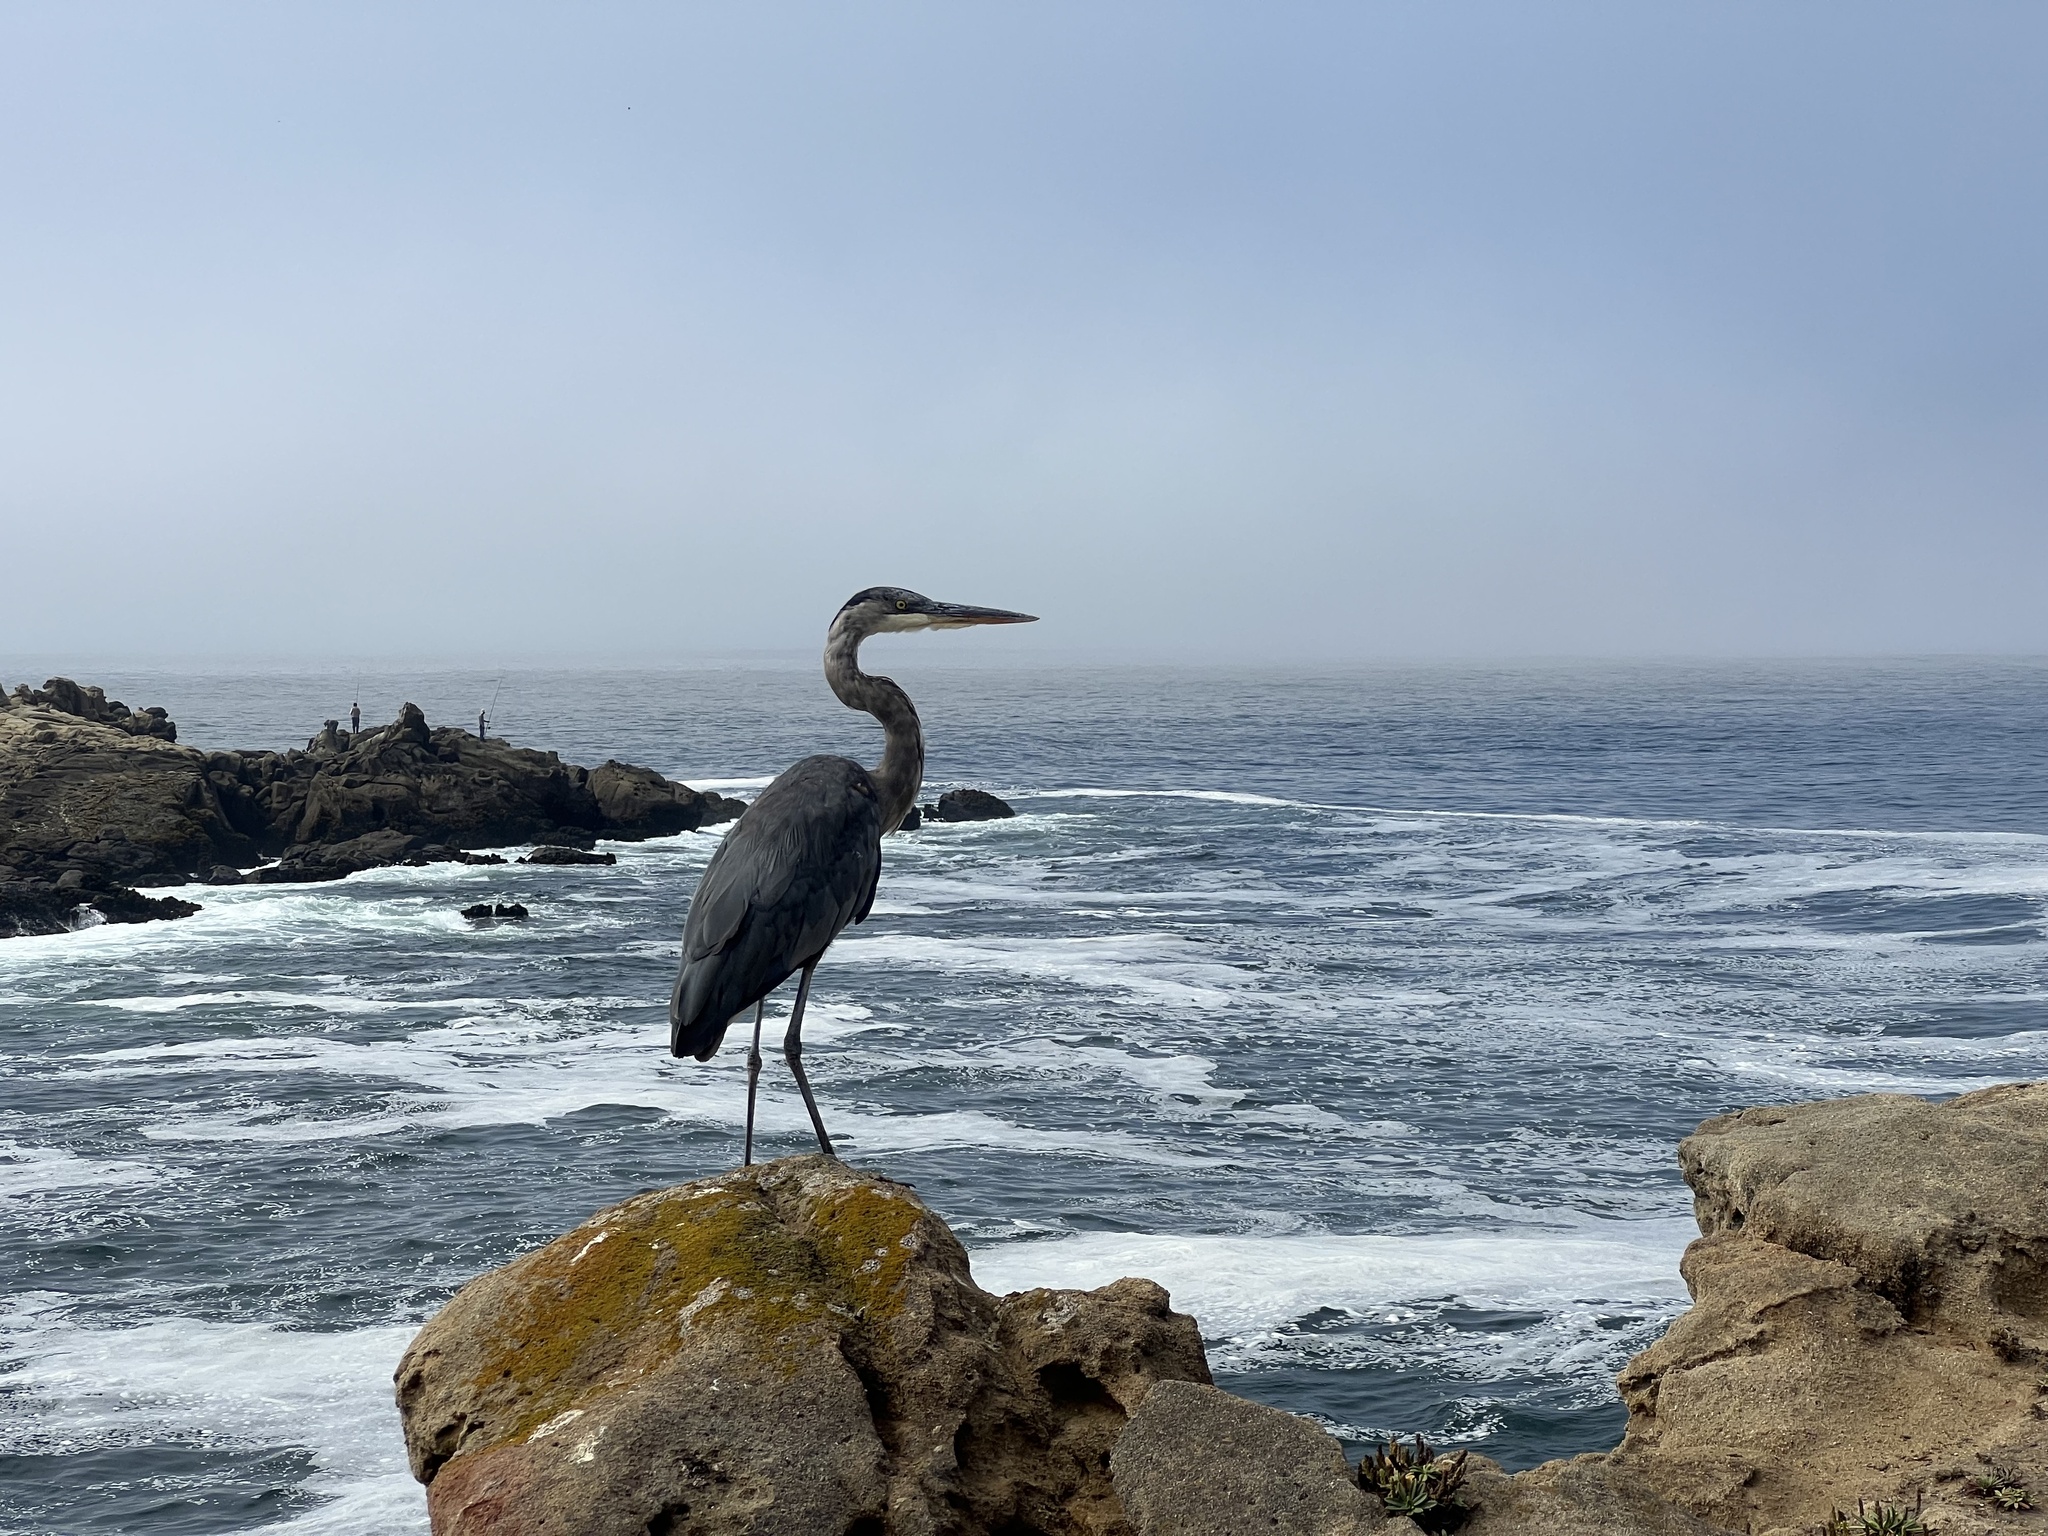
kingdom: Animalia
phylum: Chordata
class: Aves
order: Pelecaniformes
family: Ardeidae
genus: Ardea
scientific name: Ardea herodias
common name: Great blue heron
